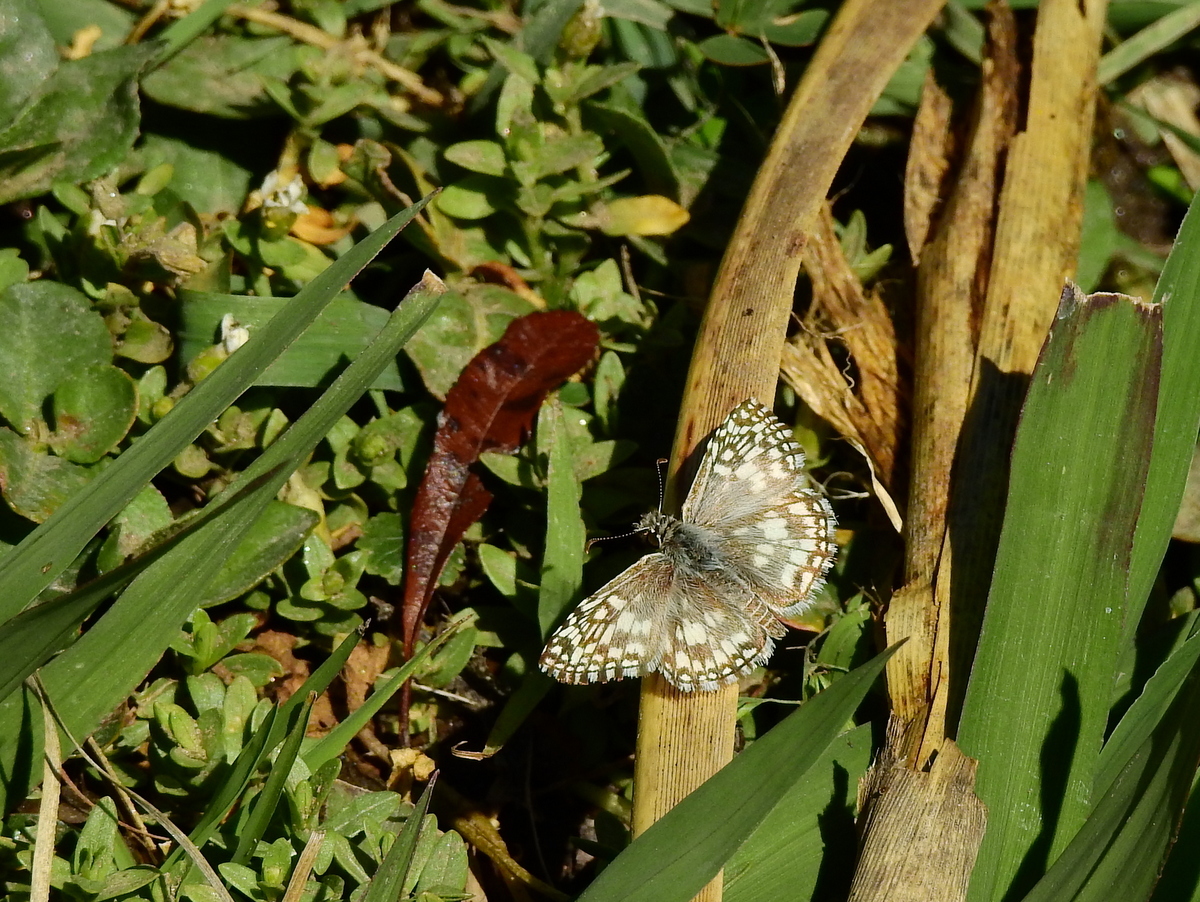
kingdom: Animalia
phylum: Arthropoda
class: Insecta
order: Lepidoptera
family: Hesperiidae
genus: Pyrgus
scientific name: Pyrgus oileus
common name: Tropical checkered-skipper
